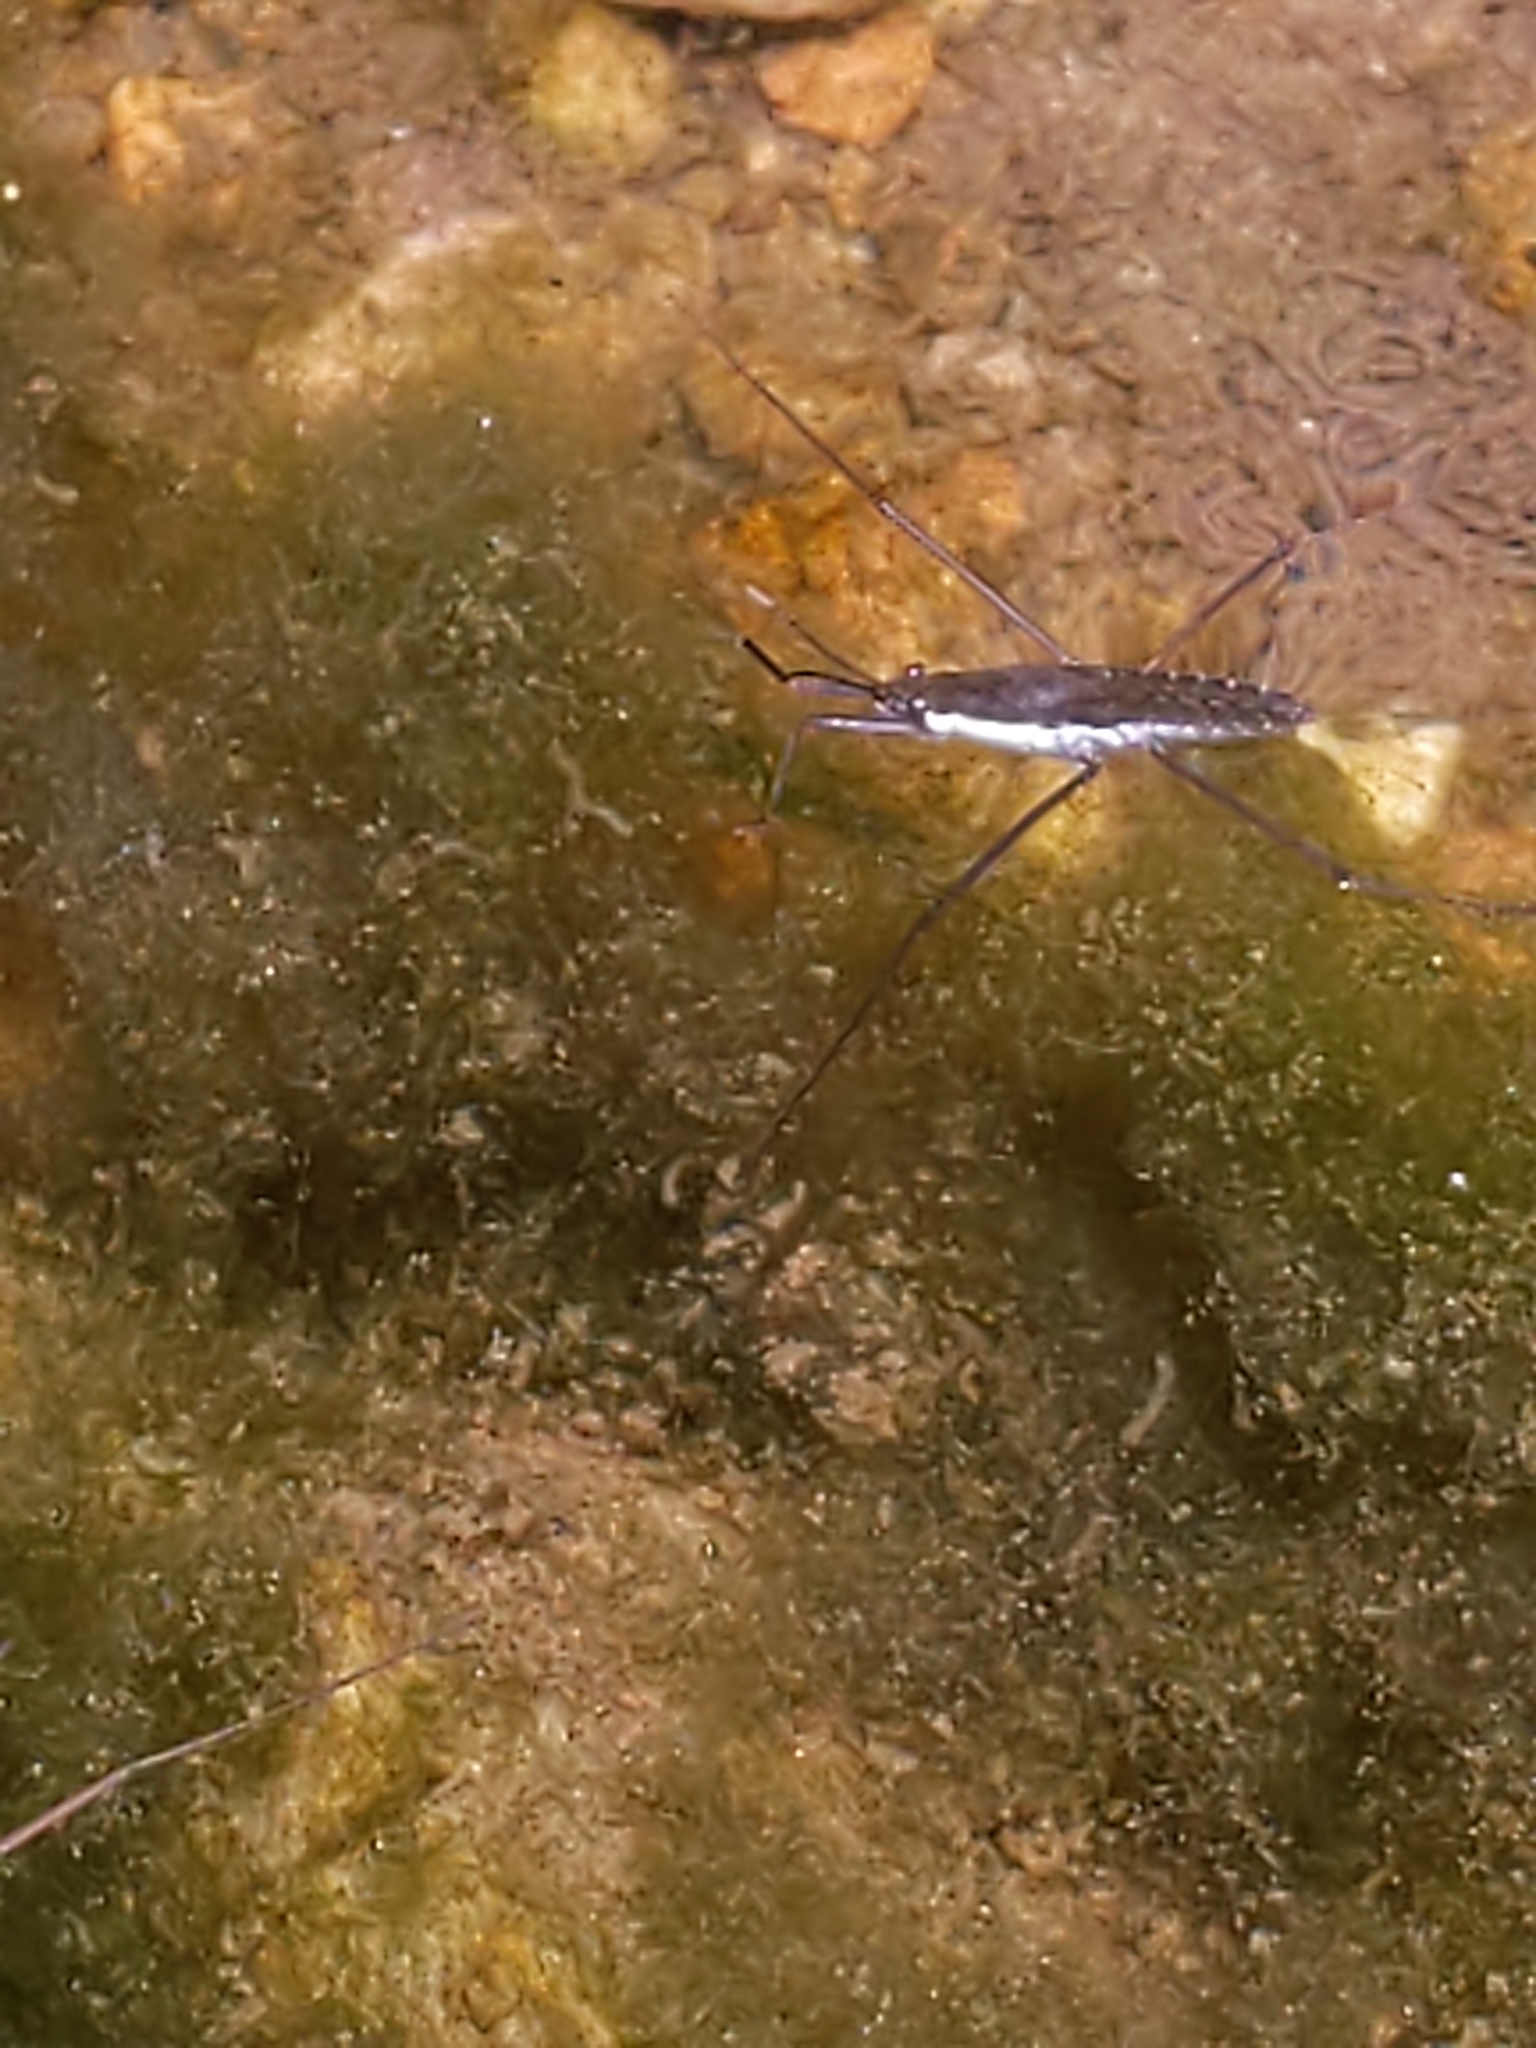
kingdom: Animalia
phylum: Arthropoda
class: Insecta
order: Hemiptera
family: Gerridae
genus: Aquarius
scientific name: Aquarius
